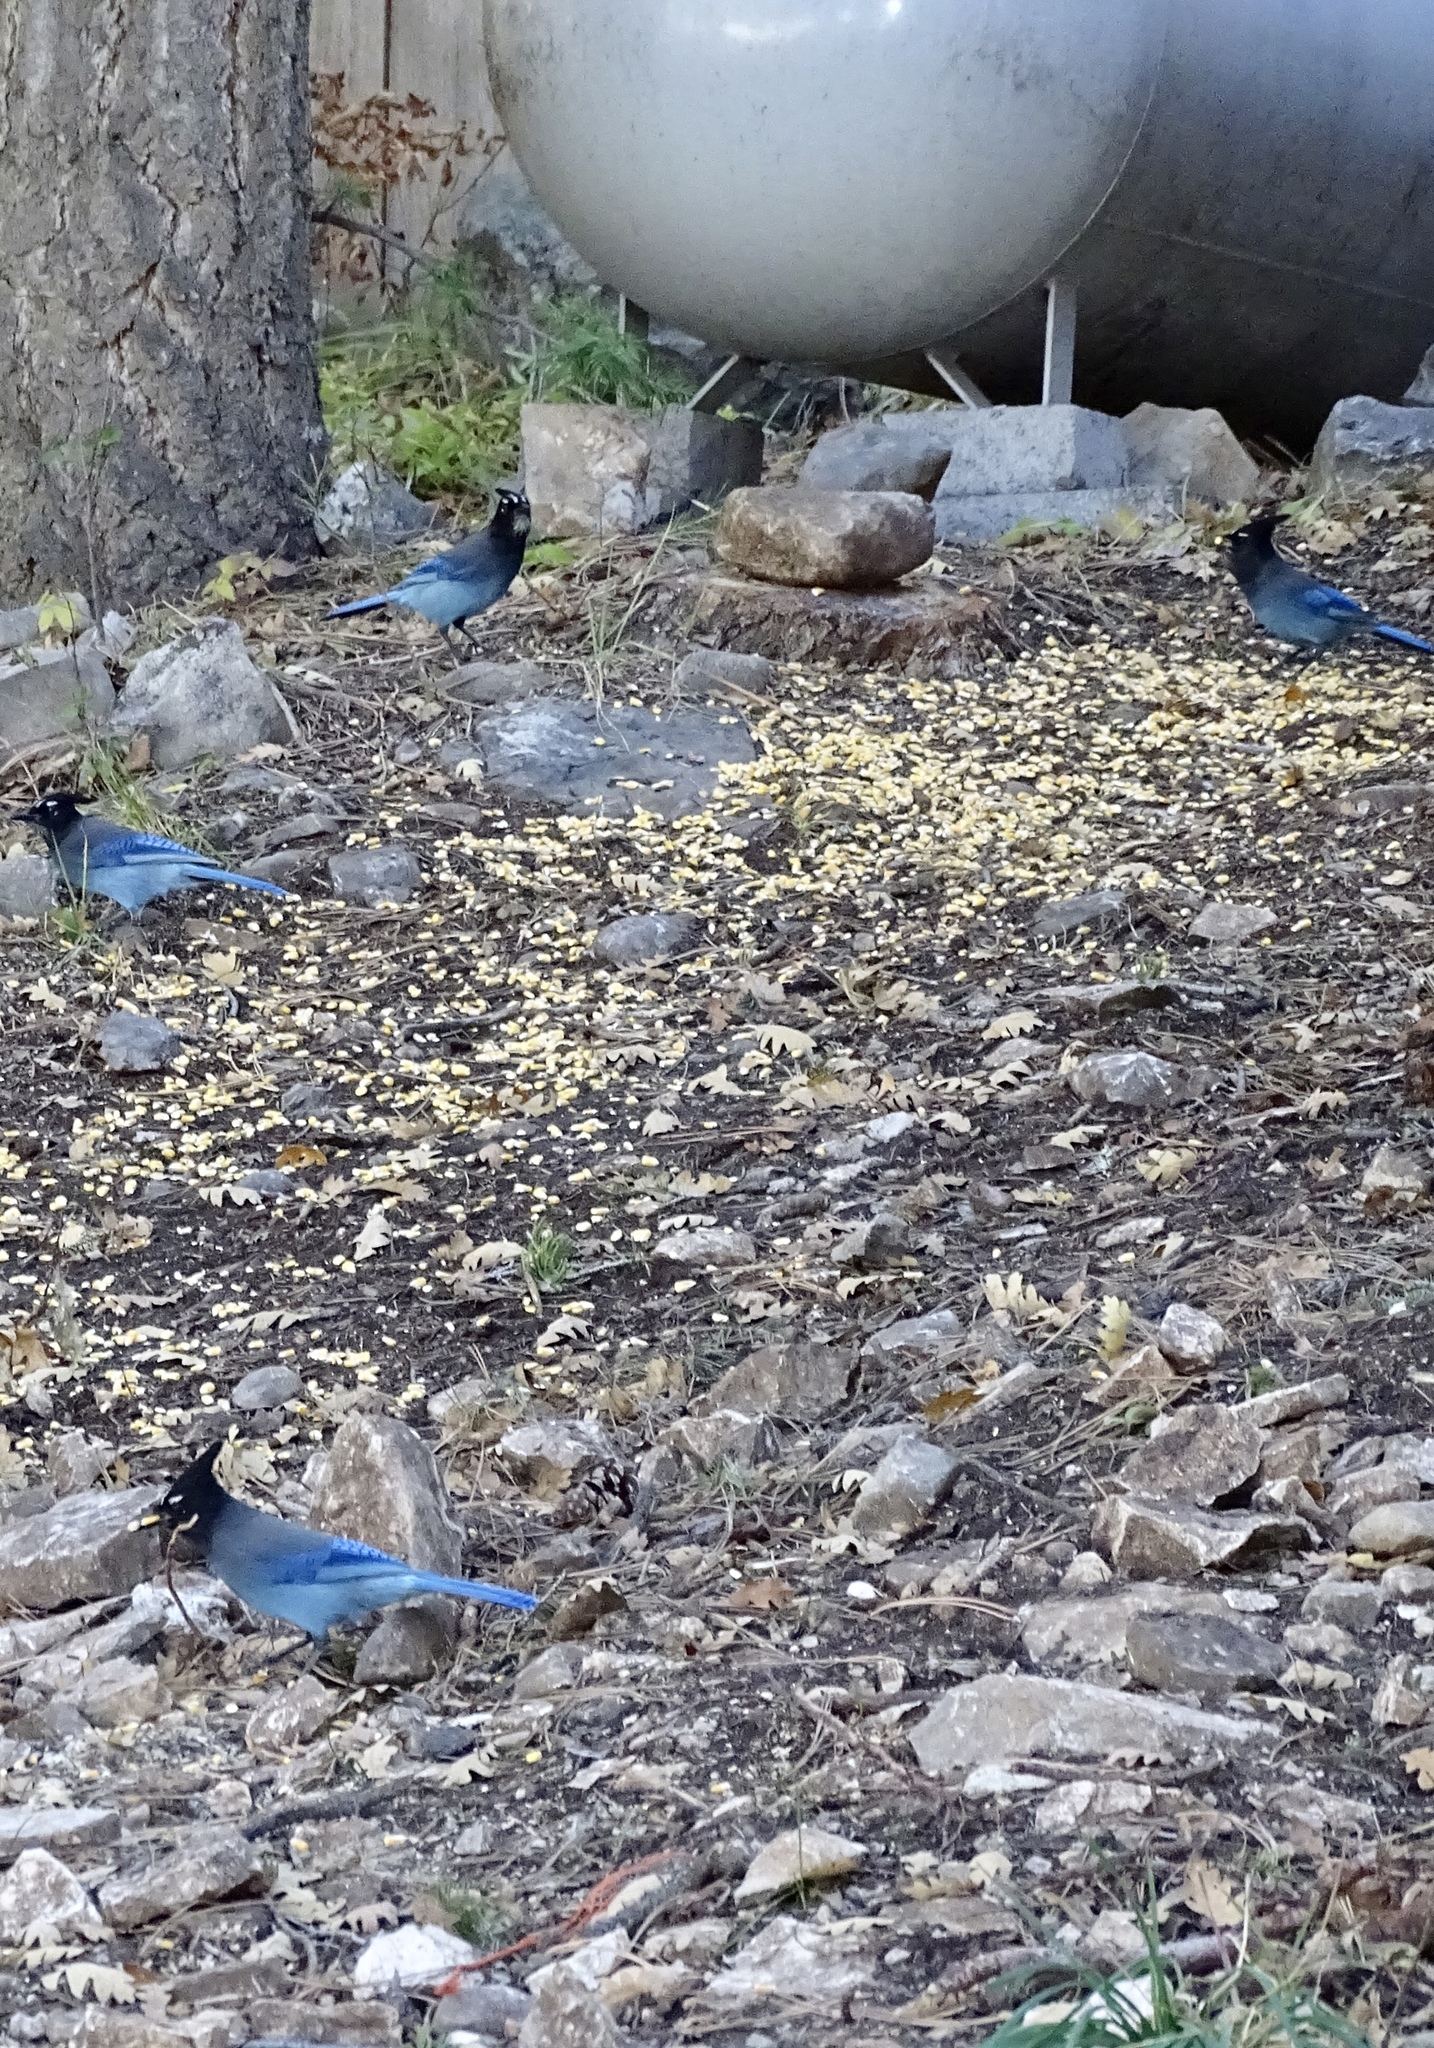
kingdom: Animalia
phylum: Chordata
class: Aves
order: Passeriformes
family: Corvidae
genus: Cyanocitta
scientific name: Cyanocitta stelleri
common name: Steller's jay
